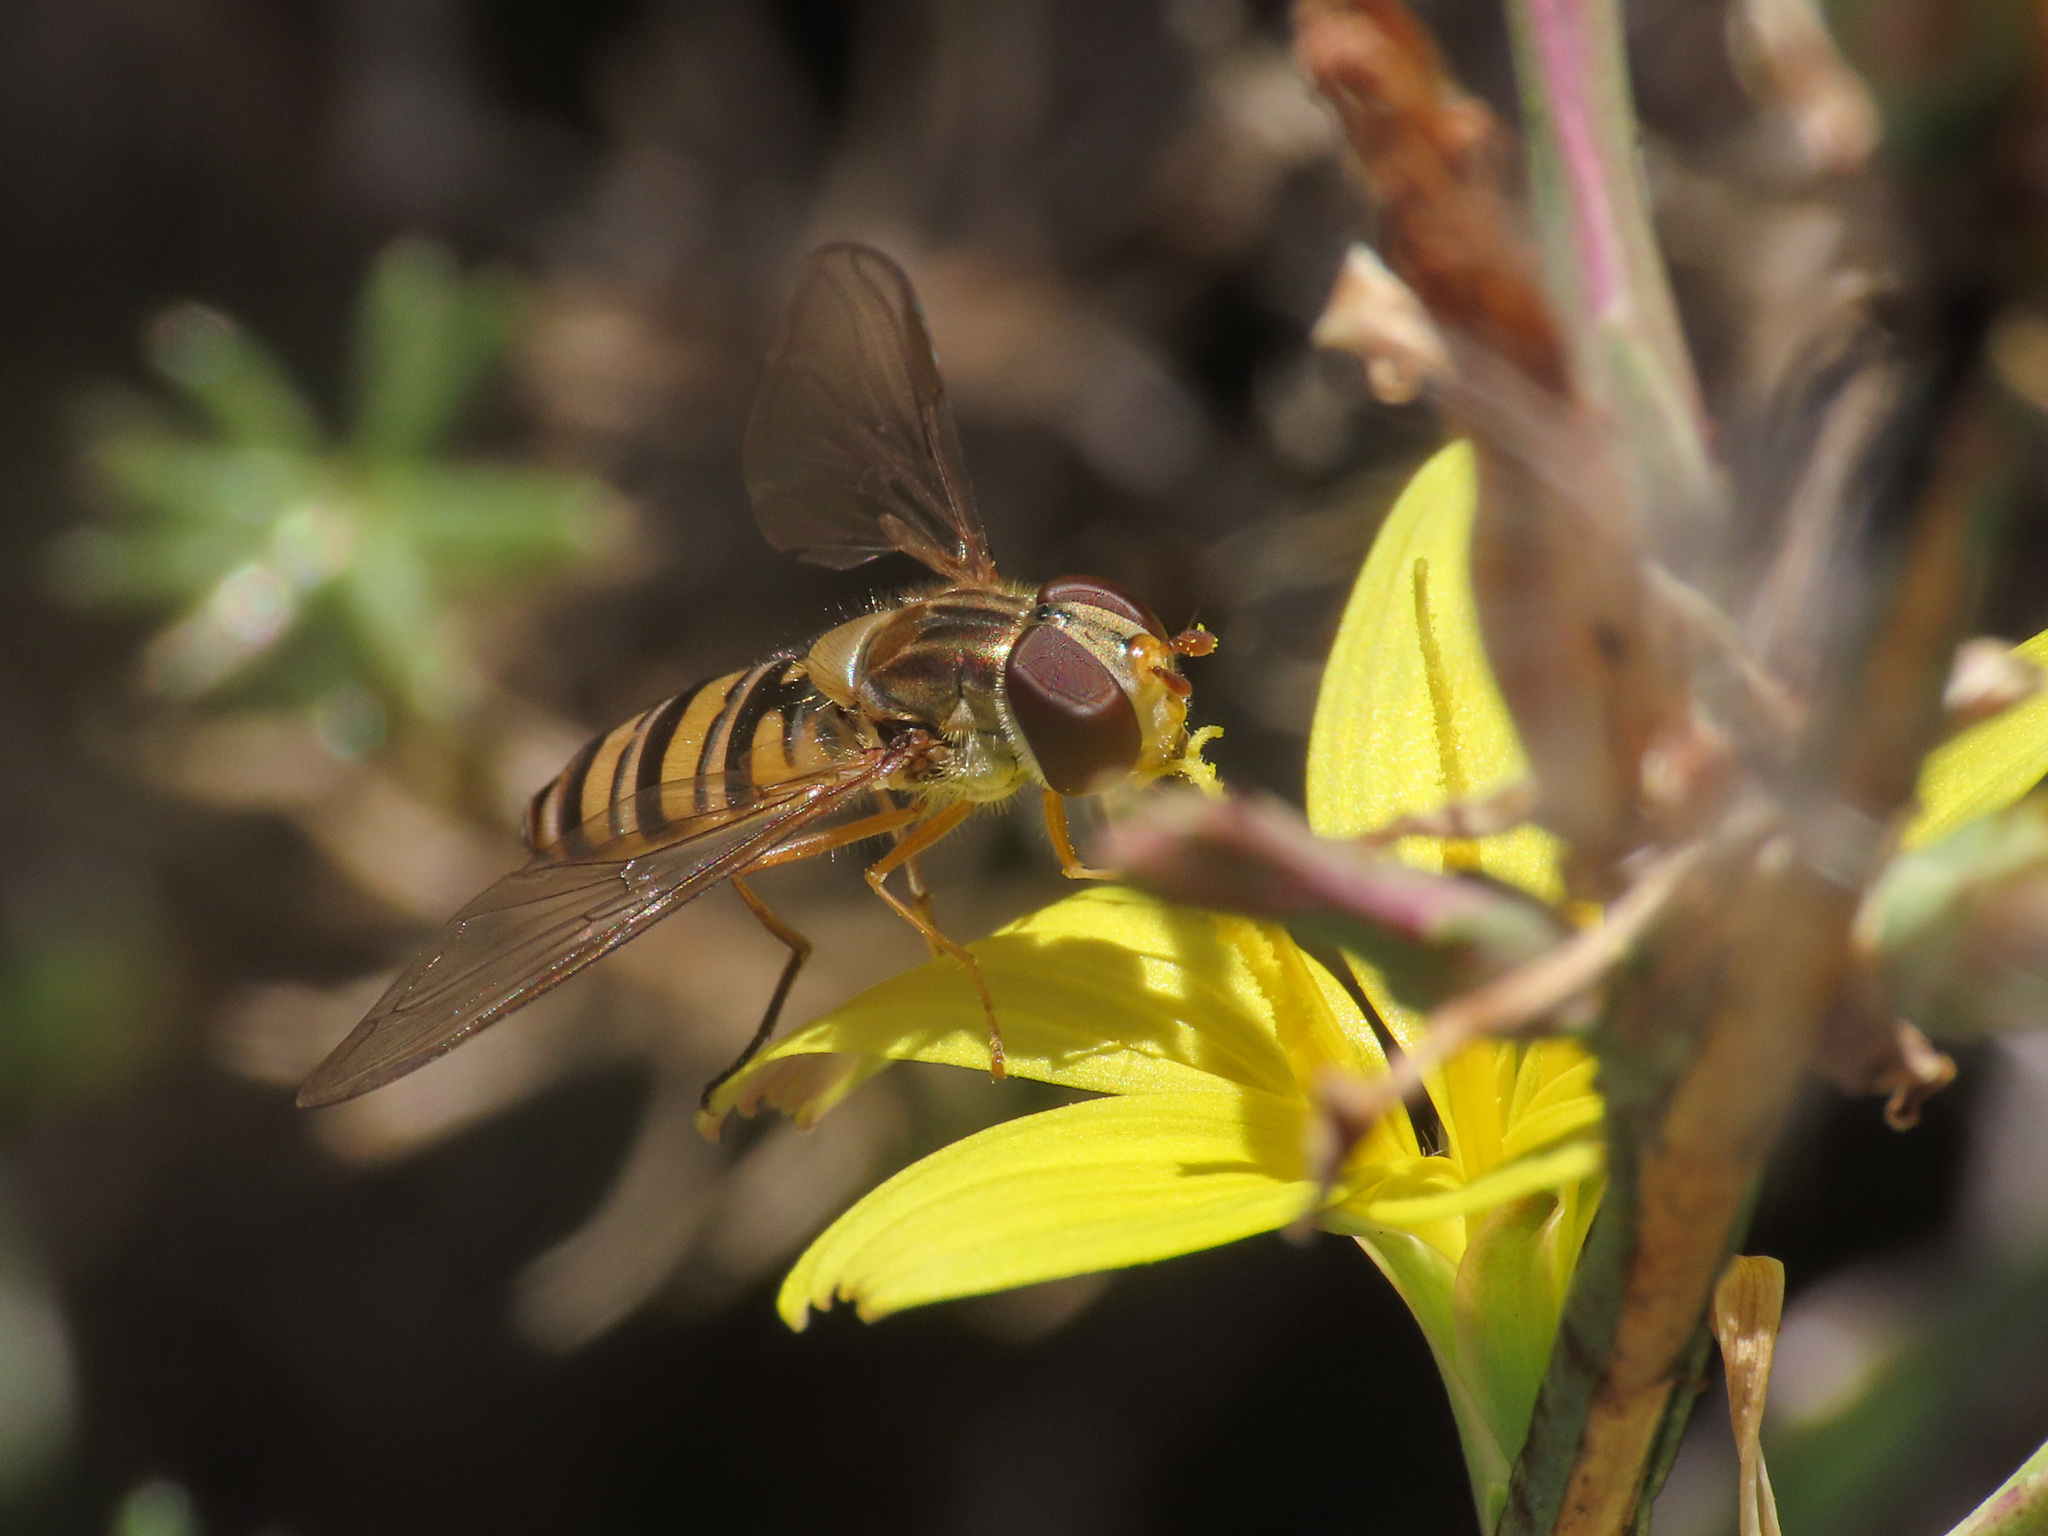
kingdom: Animalia
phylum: Arthropoda
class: Insecta
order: Diptera
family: Syrphidae
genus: Episyrphus
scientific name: Episyrphus balteatus
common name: Marmalade hoverfly
